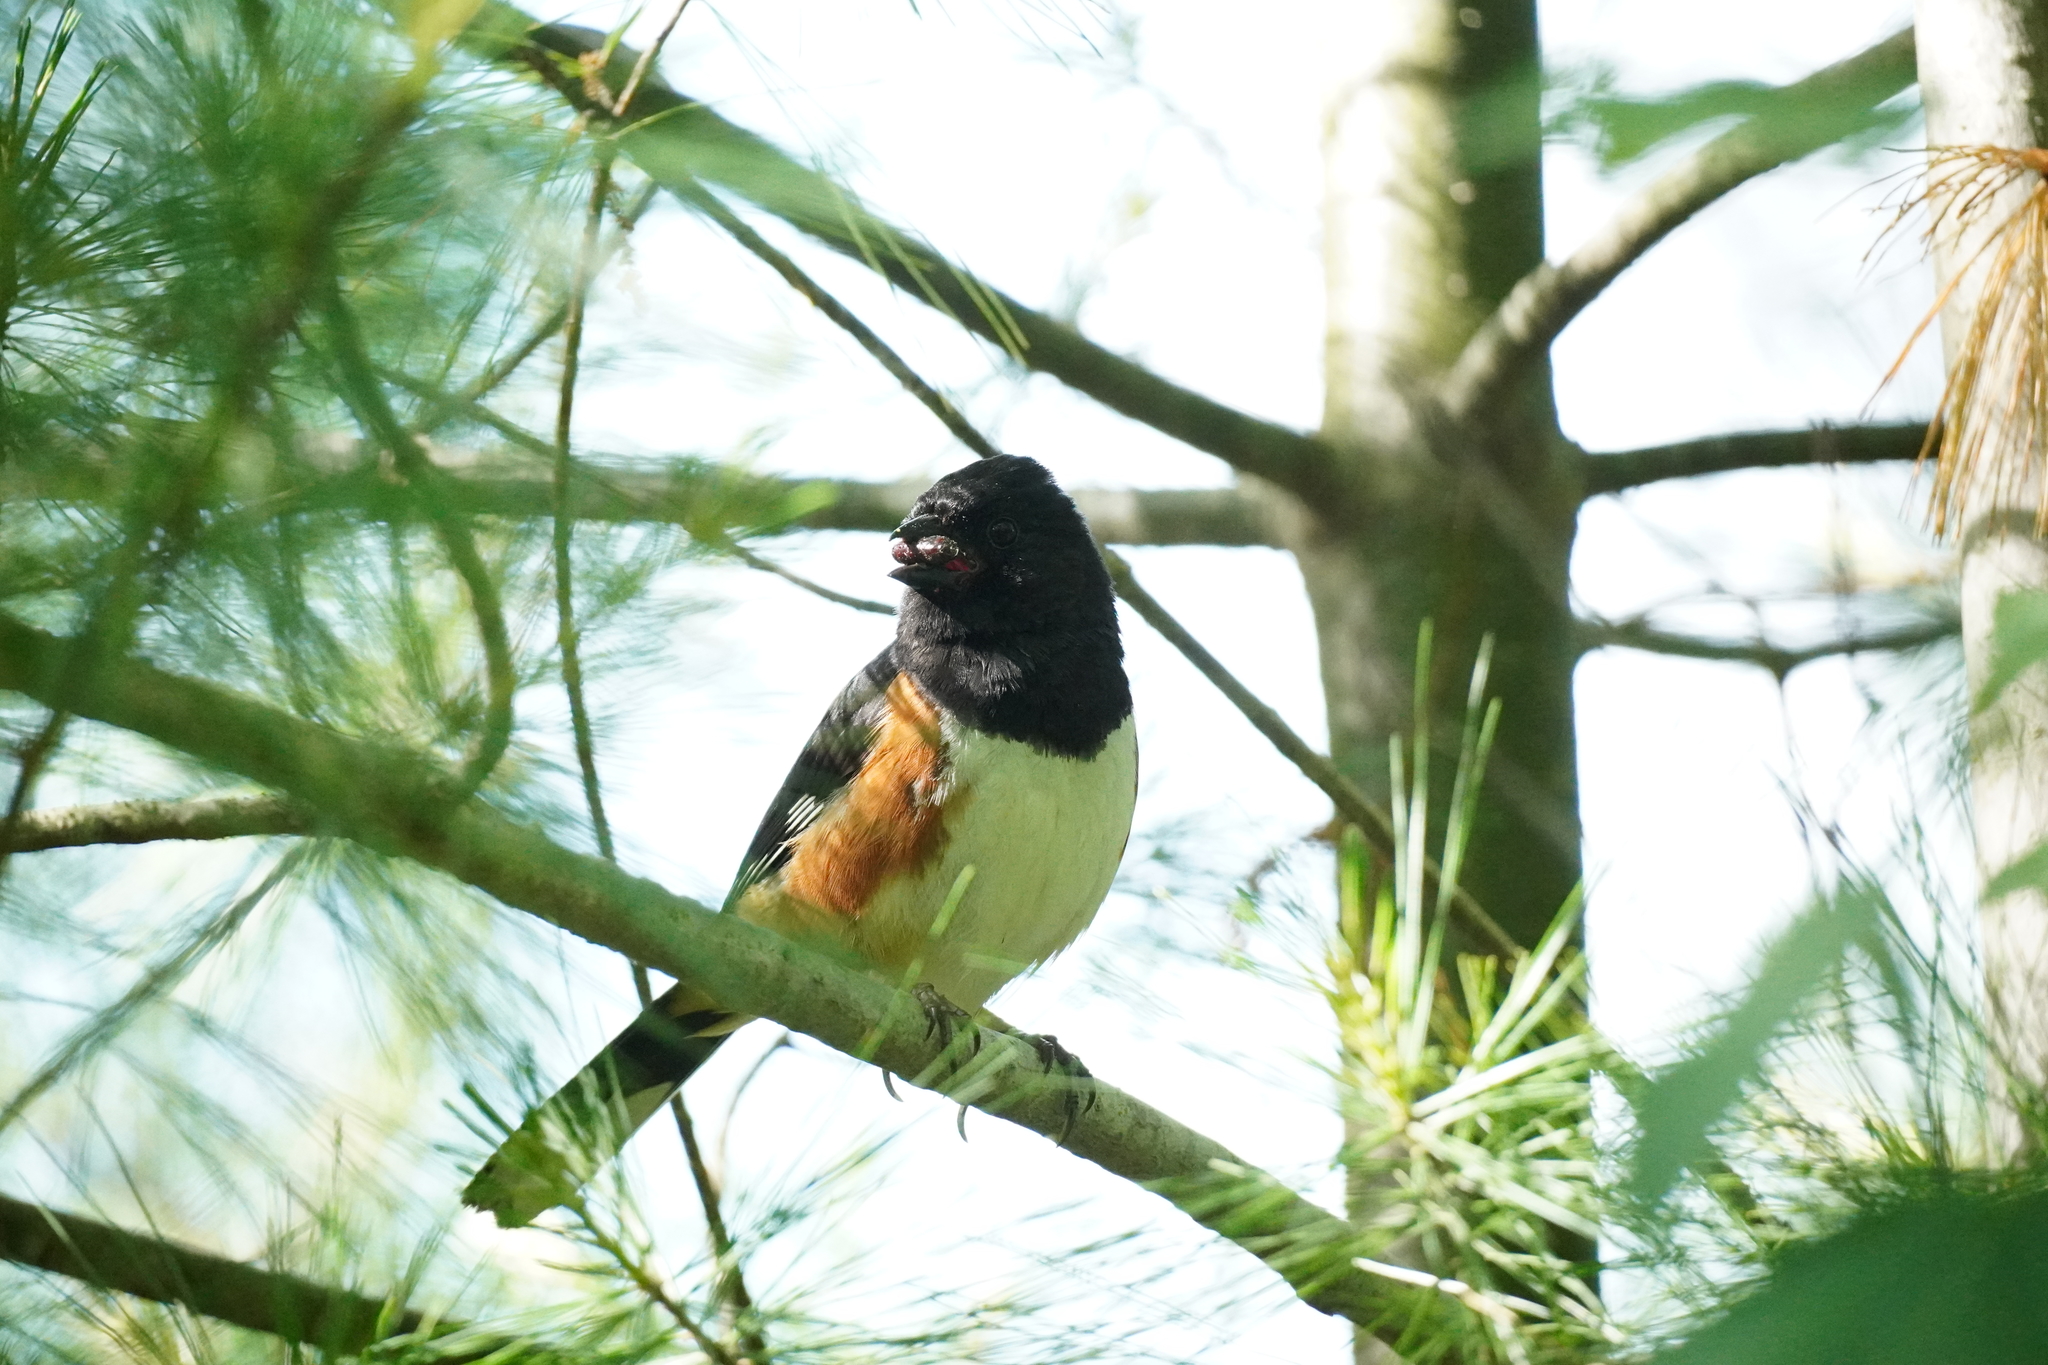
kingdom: Animalia
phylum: Chordata
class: Aves
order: Passeriformes
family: Passerellidae
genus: Pipilo
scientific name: Pipilo erythrophthalmus
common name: Eastern towhee
